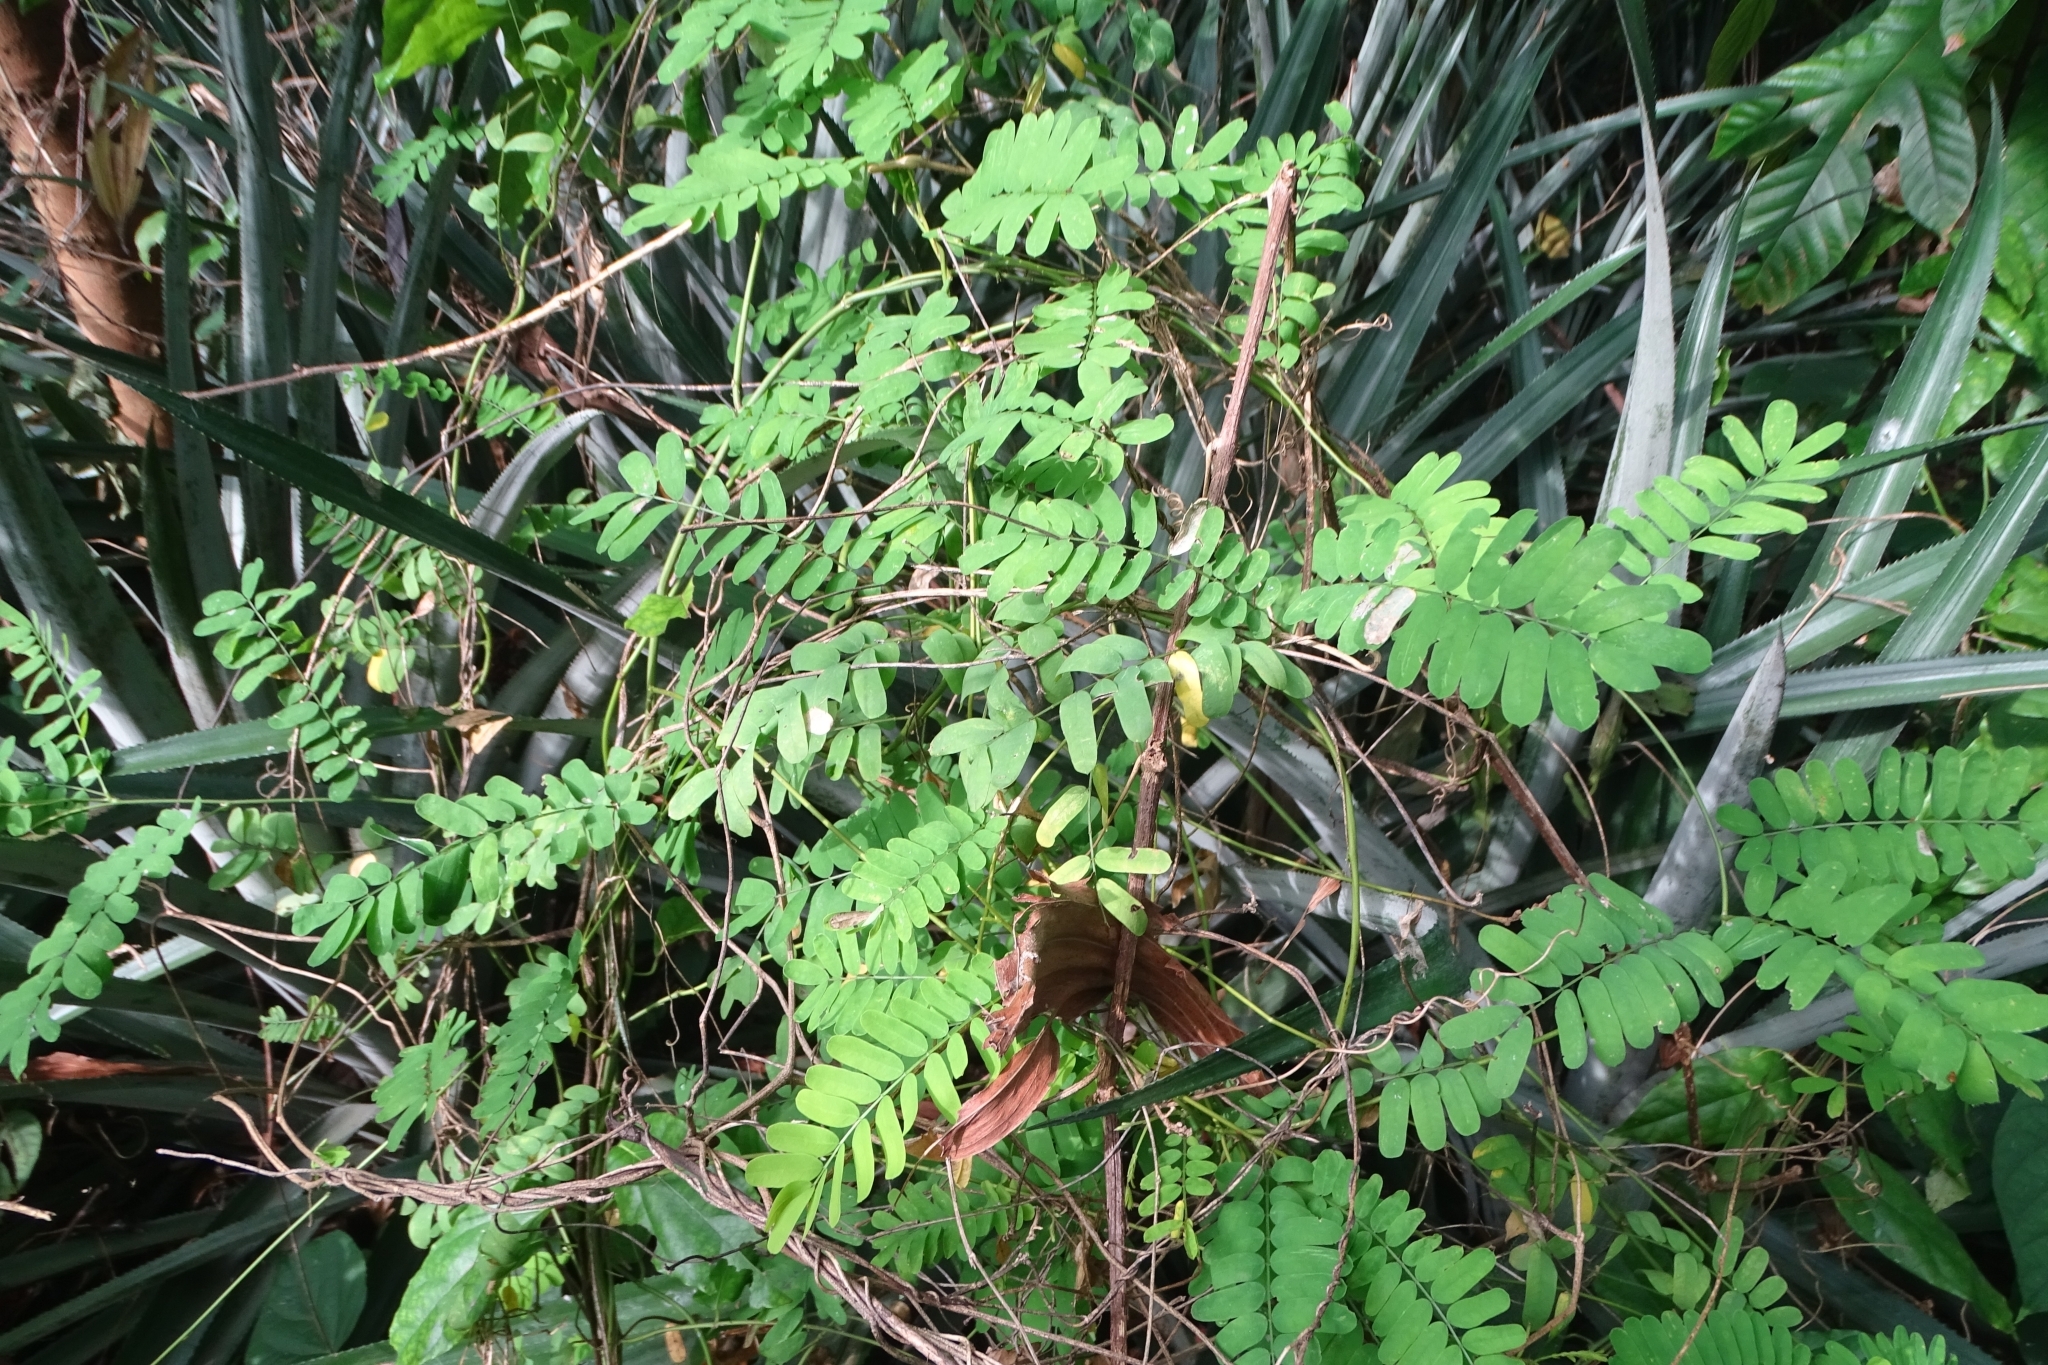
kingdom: Plantae
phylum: Tracheophyta
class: Magnoliopsida
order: Fabales
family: Fabaceae
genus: Abrus
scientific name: Abrus precatorius
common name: Rosarypea
